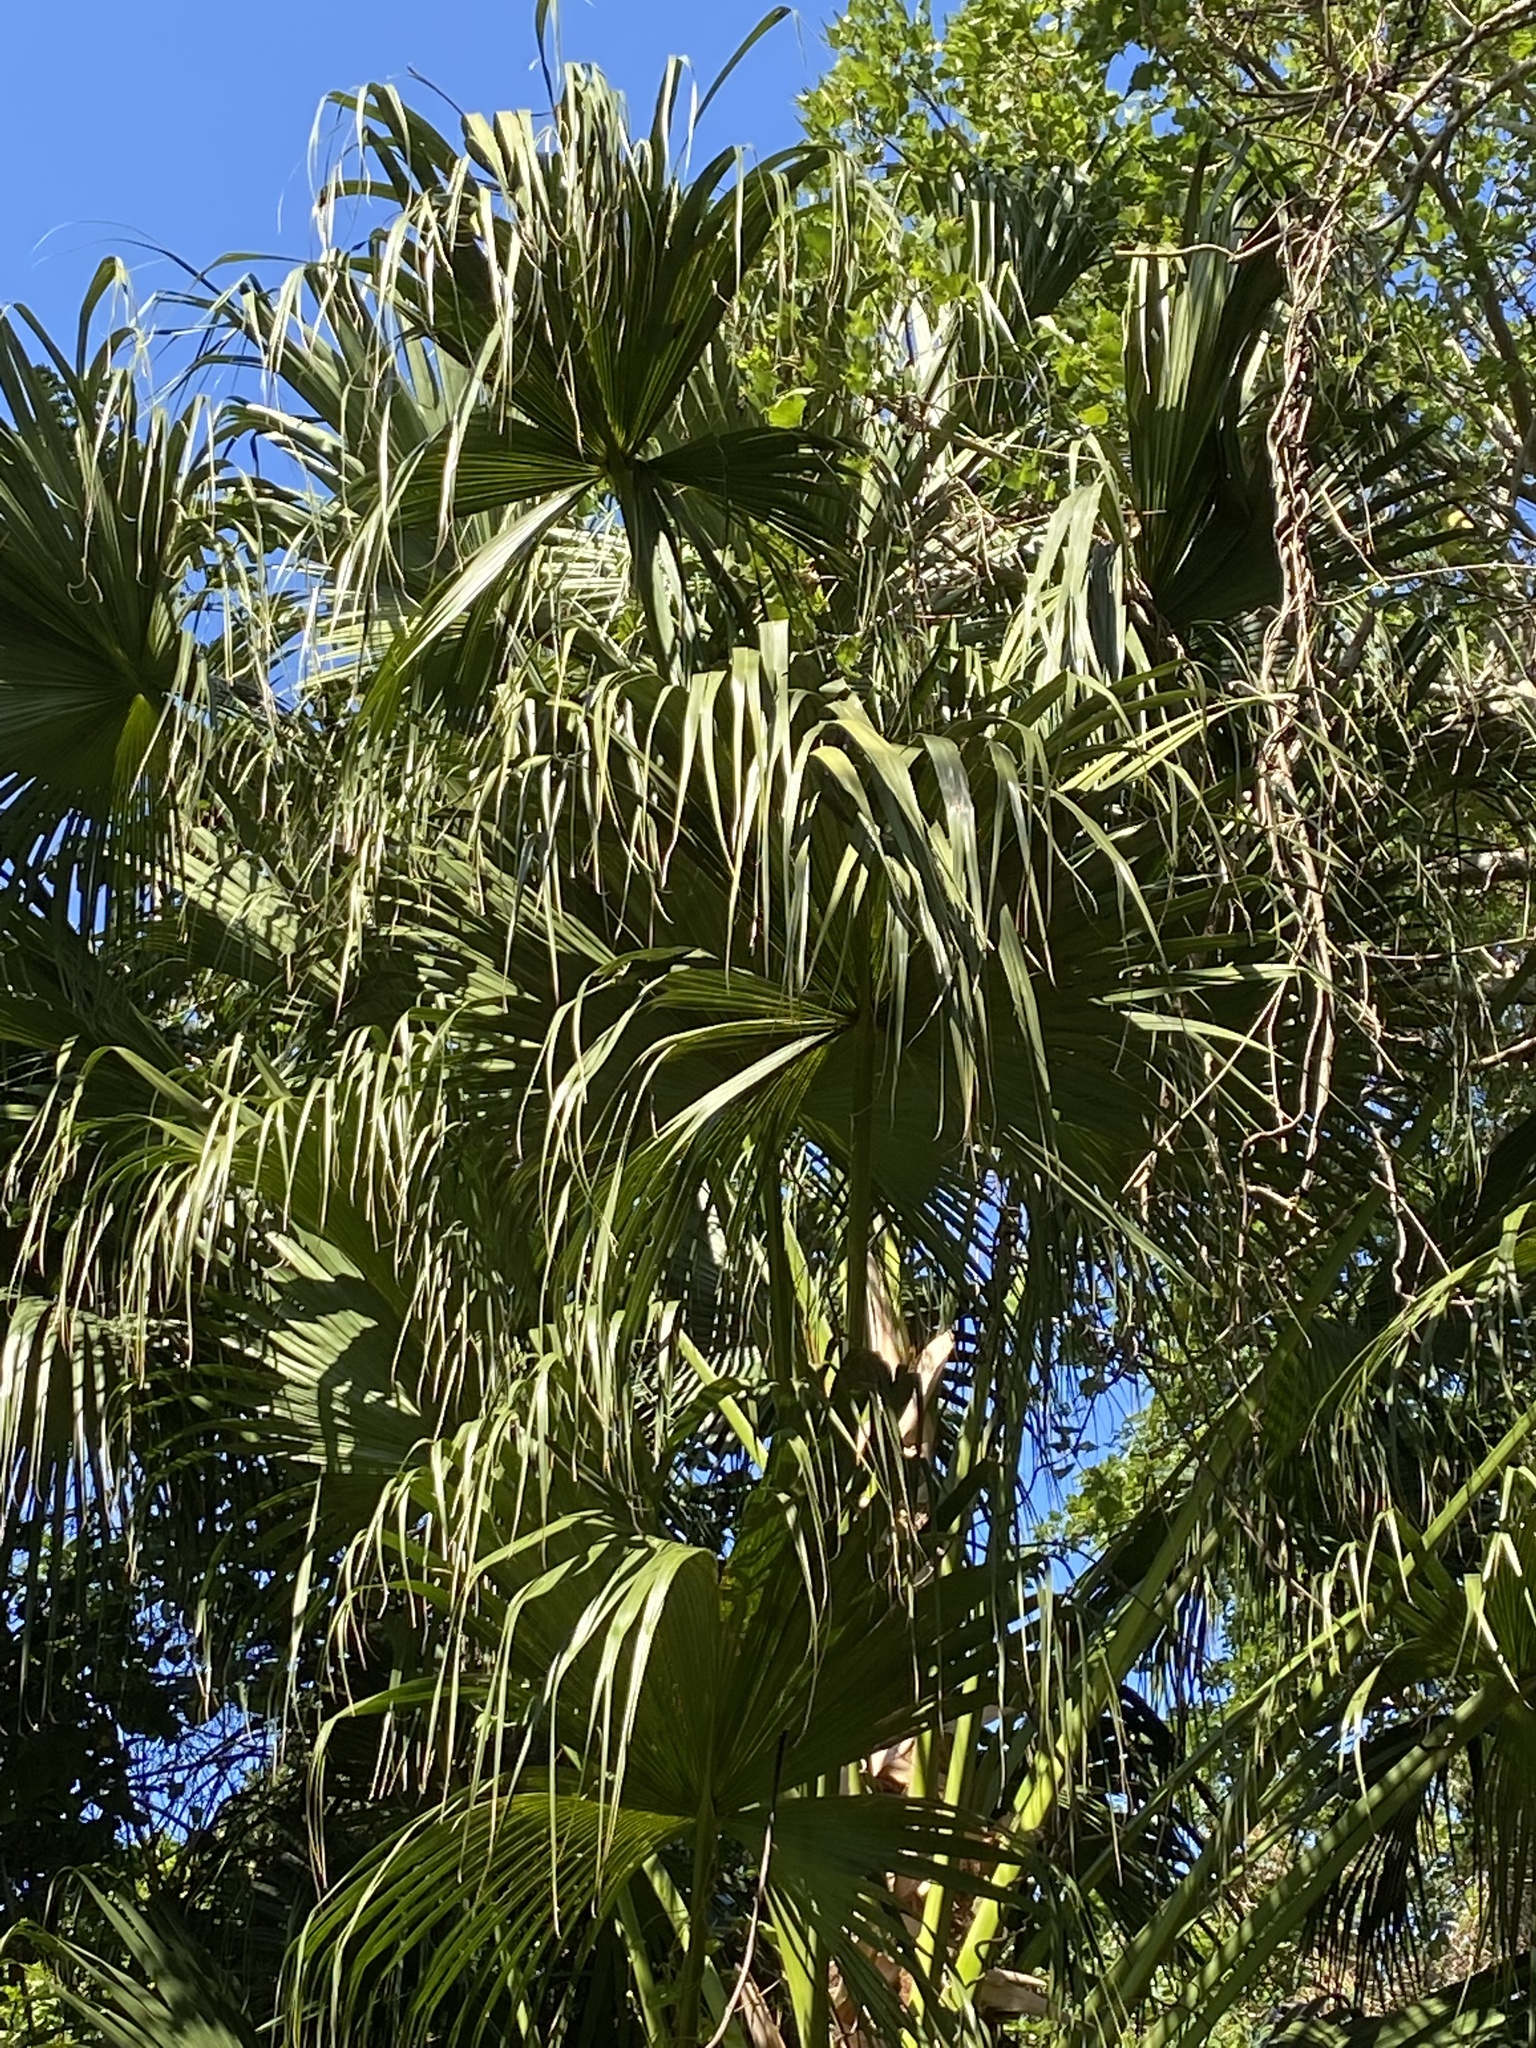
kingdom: Plantae
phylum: Tracheophyta
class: Liliopsida
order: Arecales
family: Arecaceae
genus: Livistona
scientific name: Livistona chinensis
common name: Fountain palm
